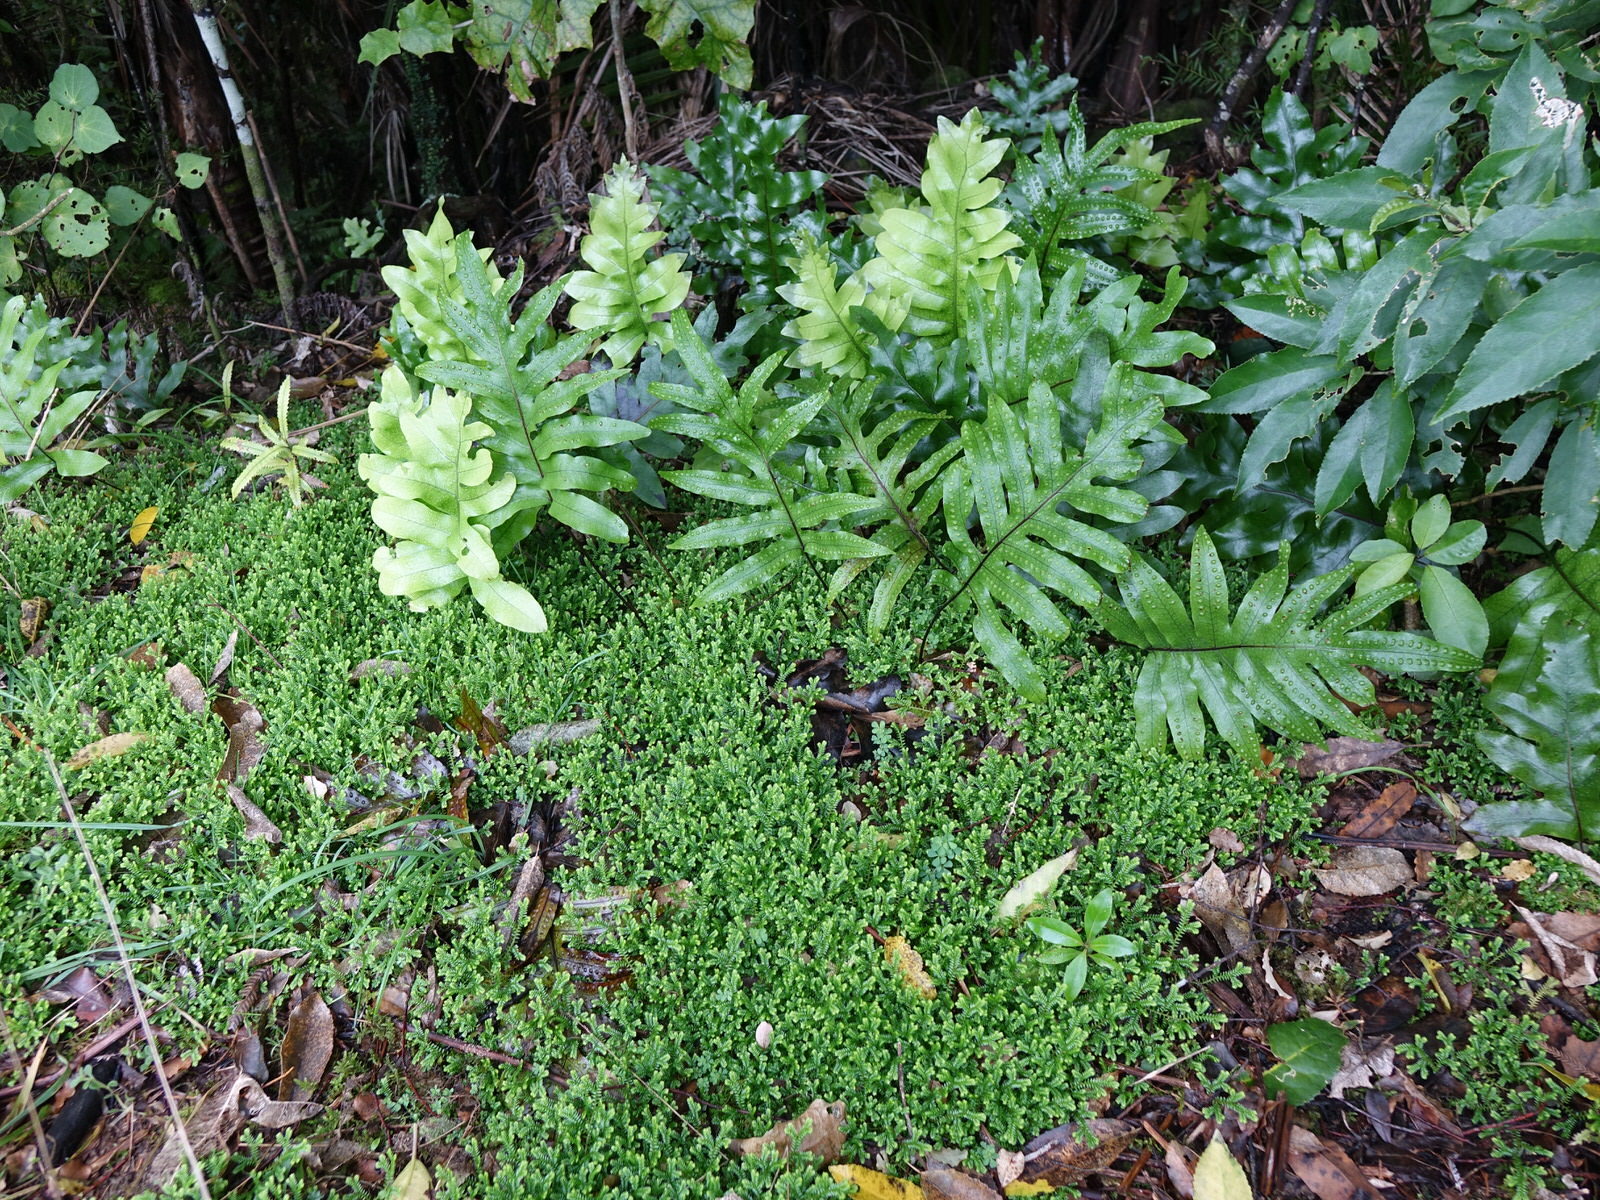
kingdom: Plantae
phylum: Tracheophyta
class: Lycopodiopsida
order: Selaginellales
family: Selaginellaceae
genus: Selaginella
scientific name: Selaginella kraussiana
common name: Krauss' spikemoss
